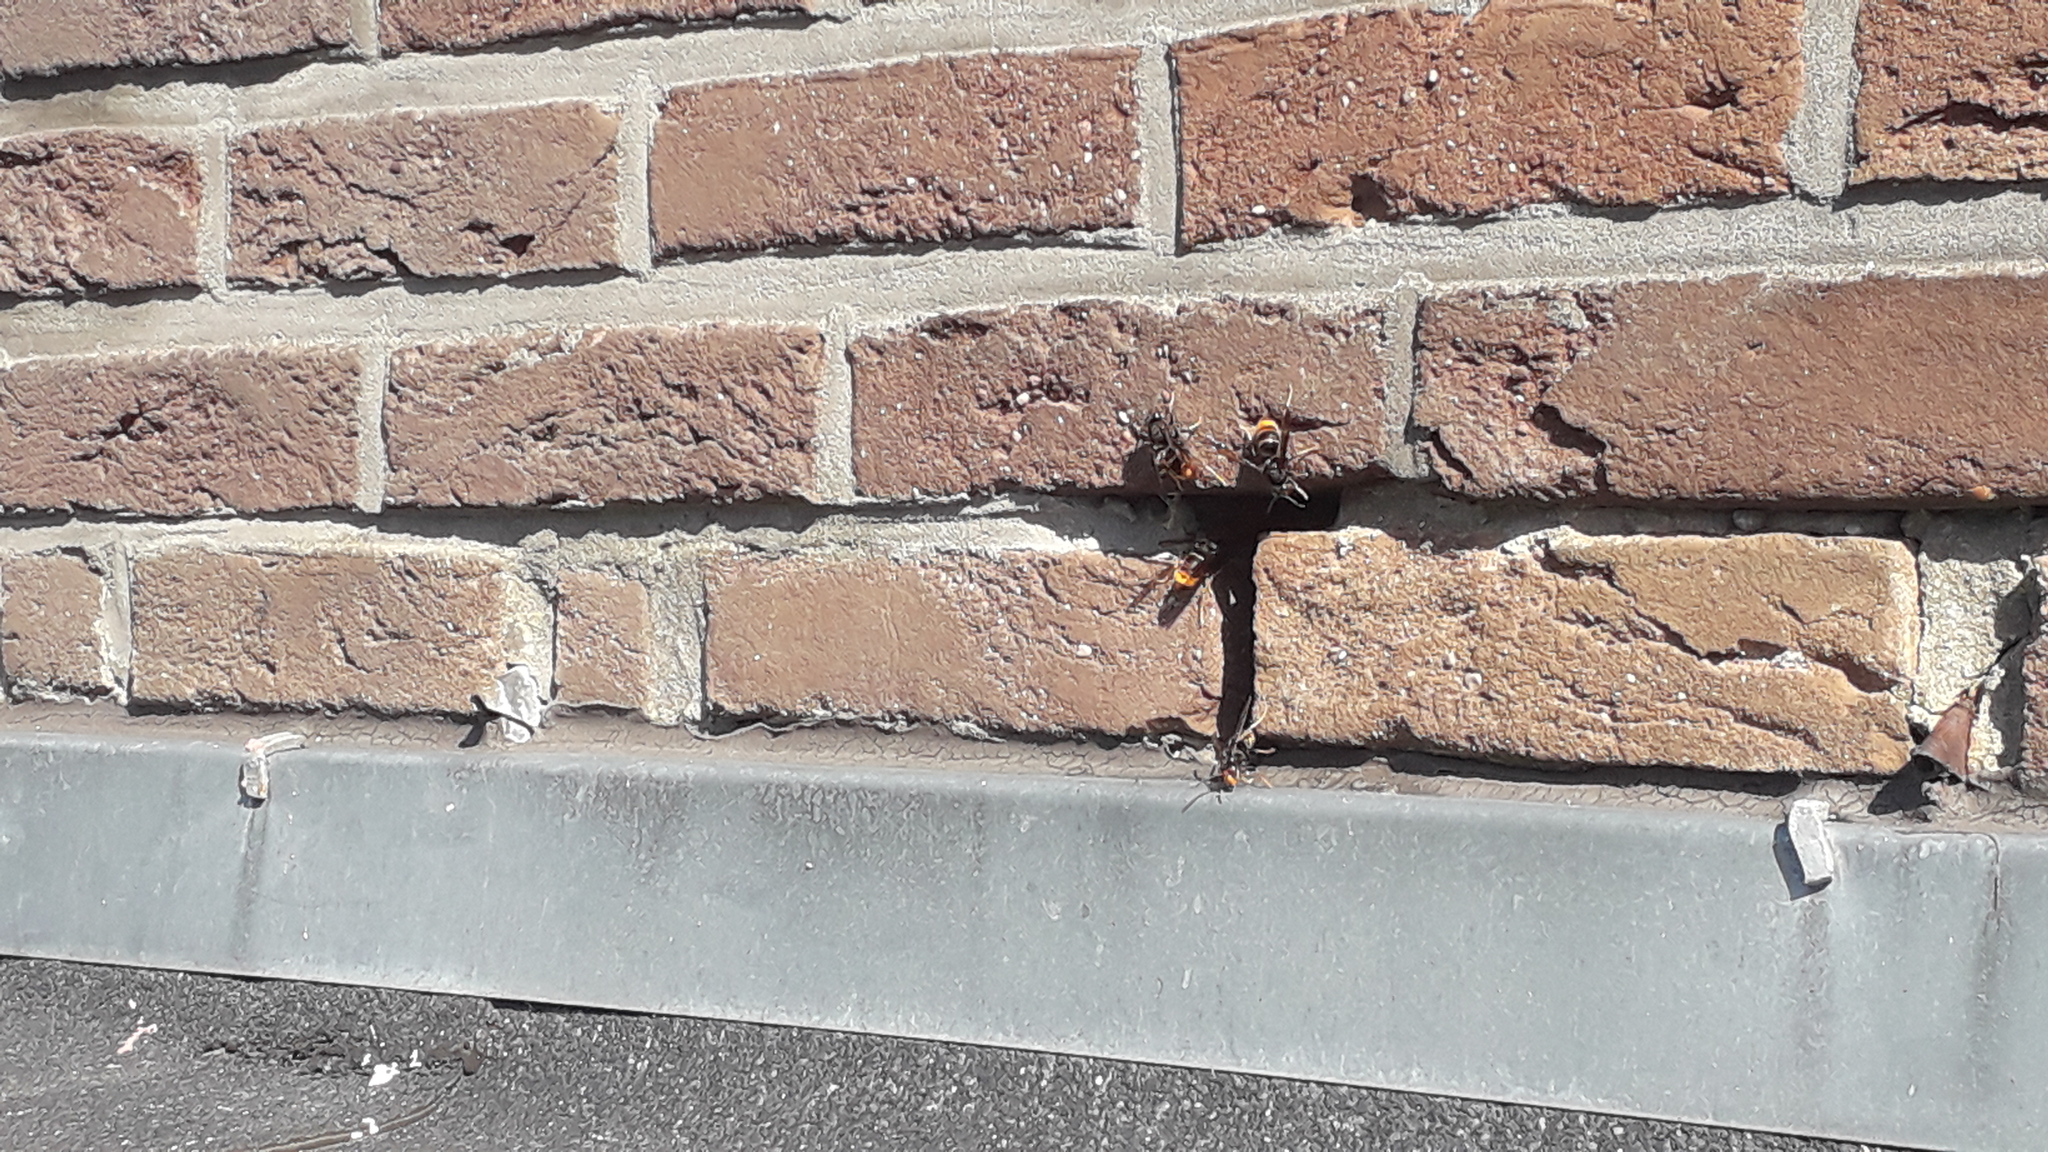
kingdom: Animalia
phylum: Arthropoda
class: Insecta
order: Hymenoptera
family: Vespidae
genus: Vespa
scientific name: Vespa velutina
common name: Asian hornet
